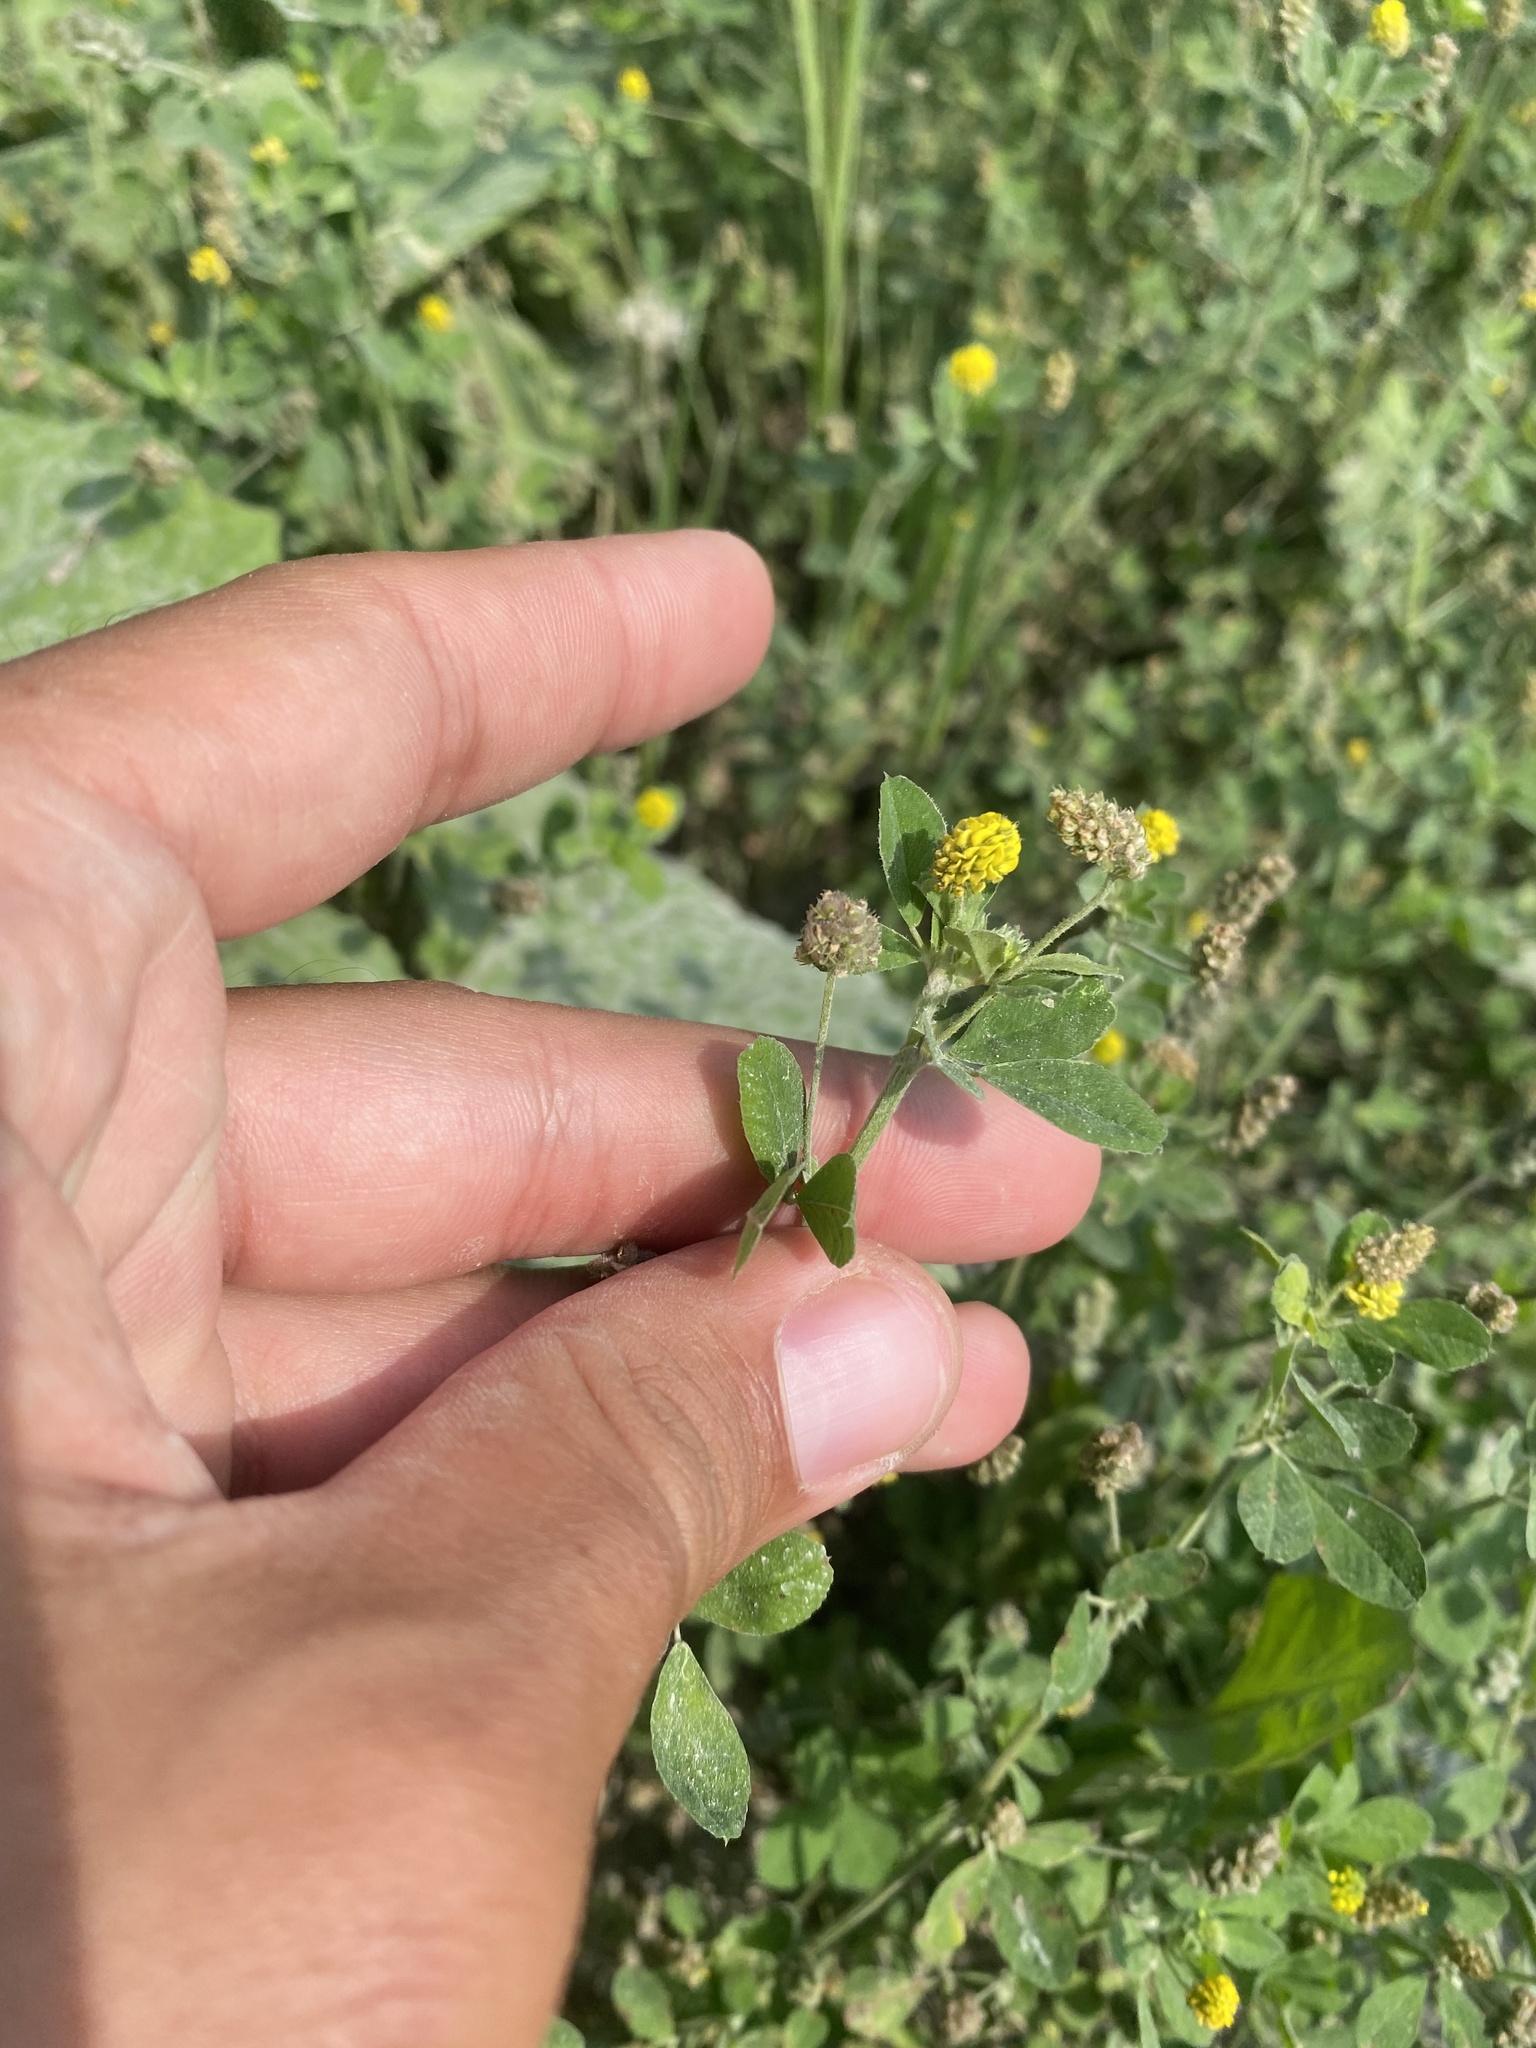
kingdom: Plantae
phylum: Tracheophyta
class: Magnoliopsida
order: Fabales
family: Fabaceae
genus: Medicago
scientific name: Medicago lupulina
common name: Black medick
